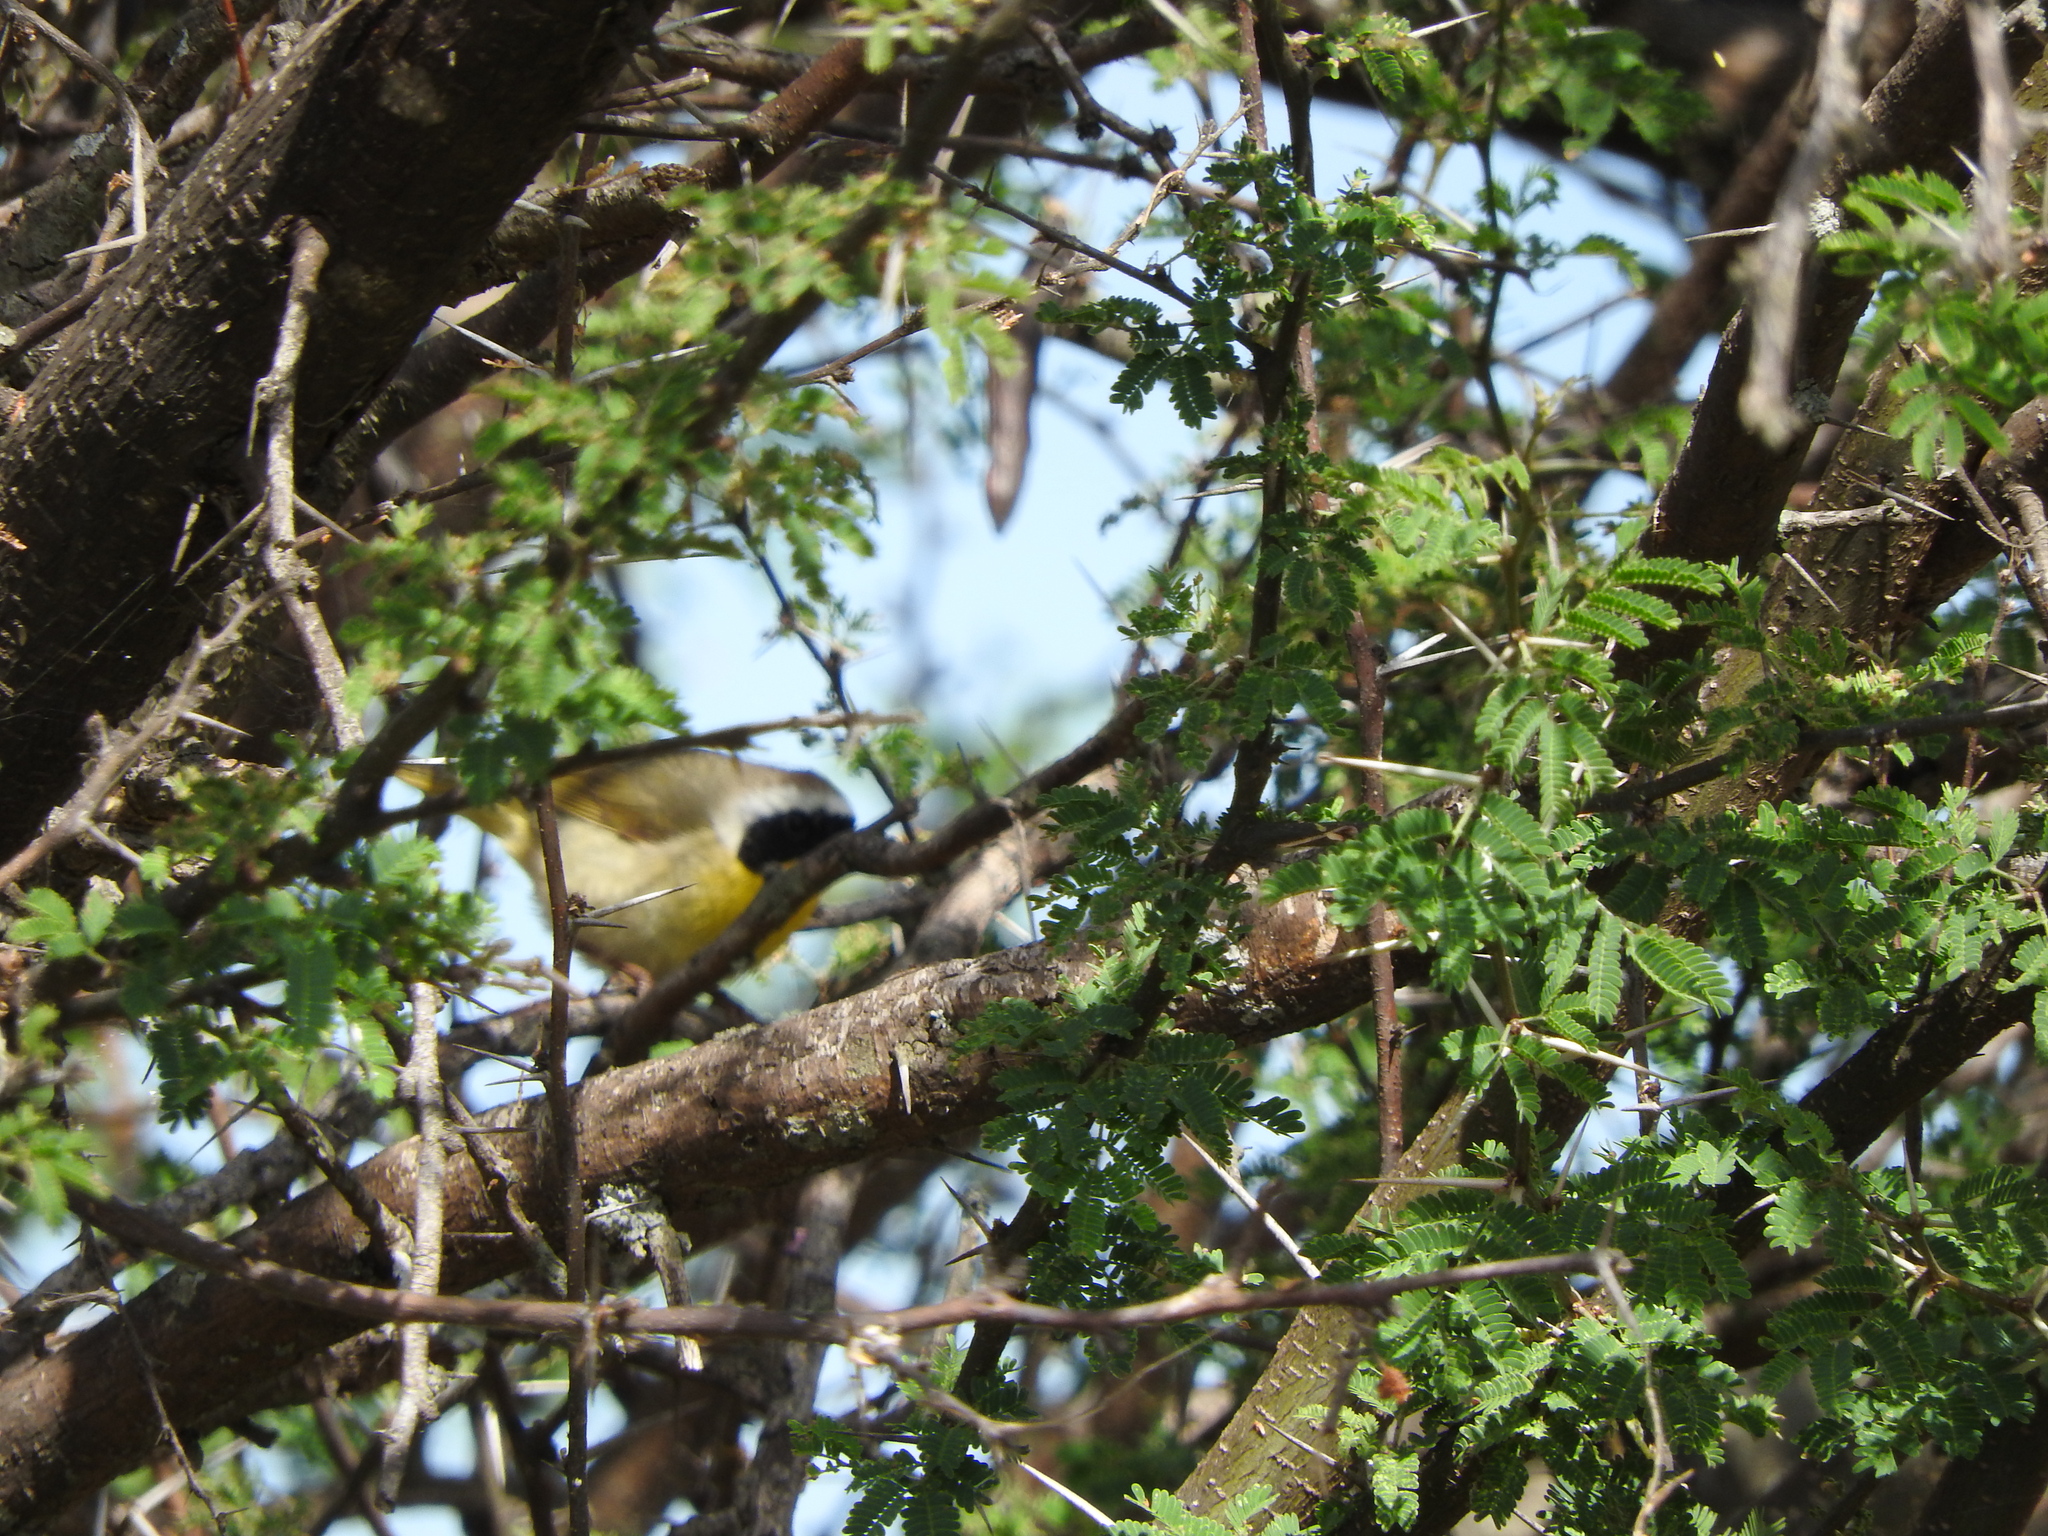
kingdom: Animalia
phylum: Chordata
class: Aves
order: Passeriformes
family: Parulidae
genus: Geothlypis
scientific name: Geothlypis trichas
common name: Common yellowthroat
